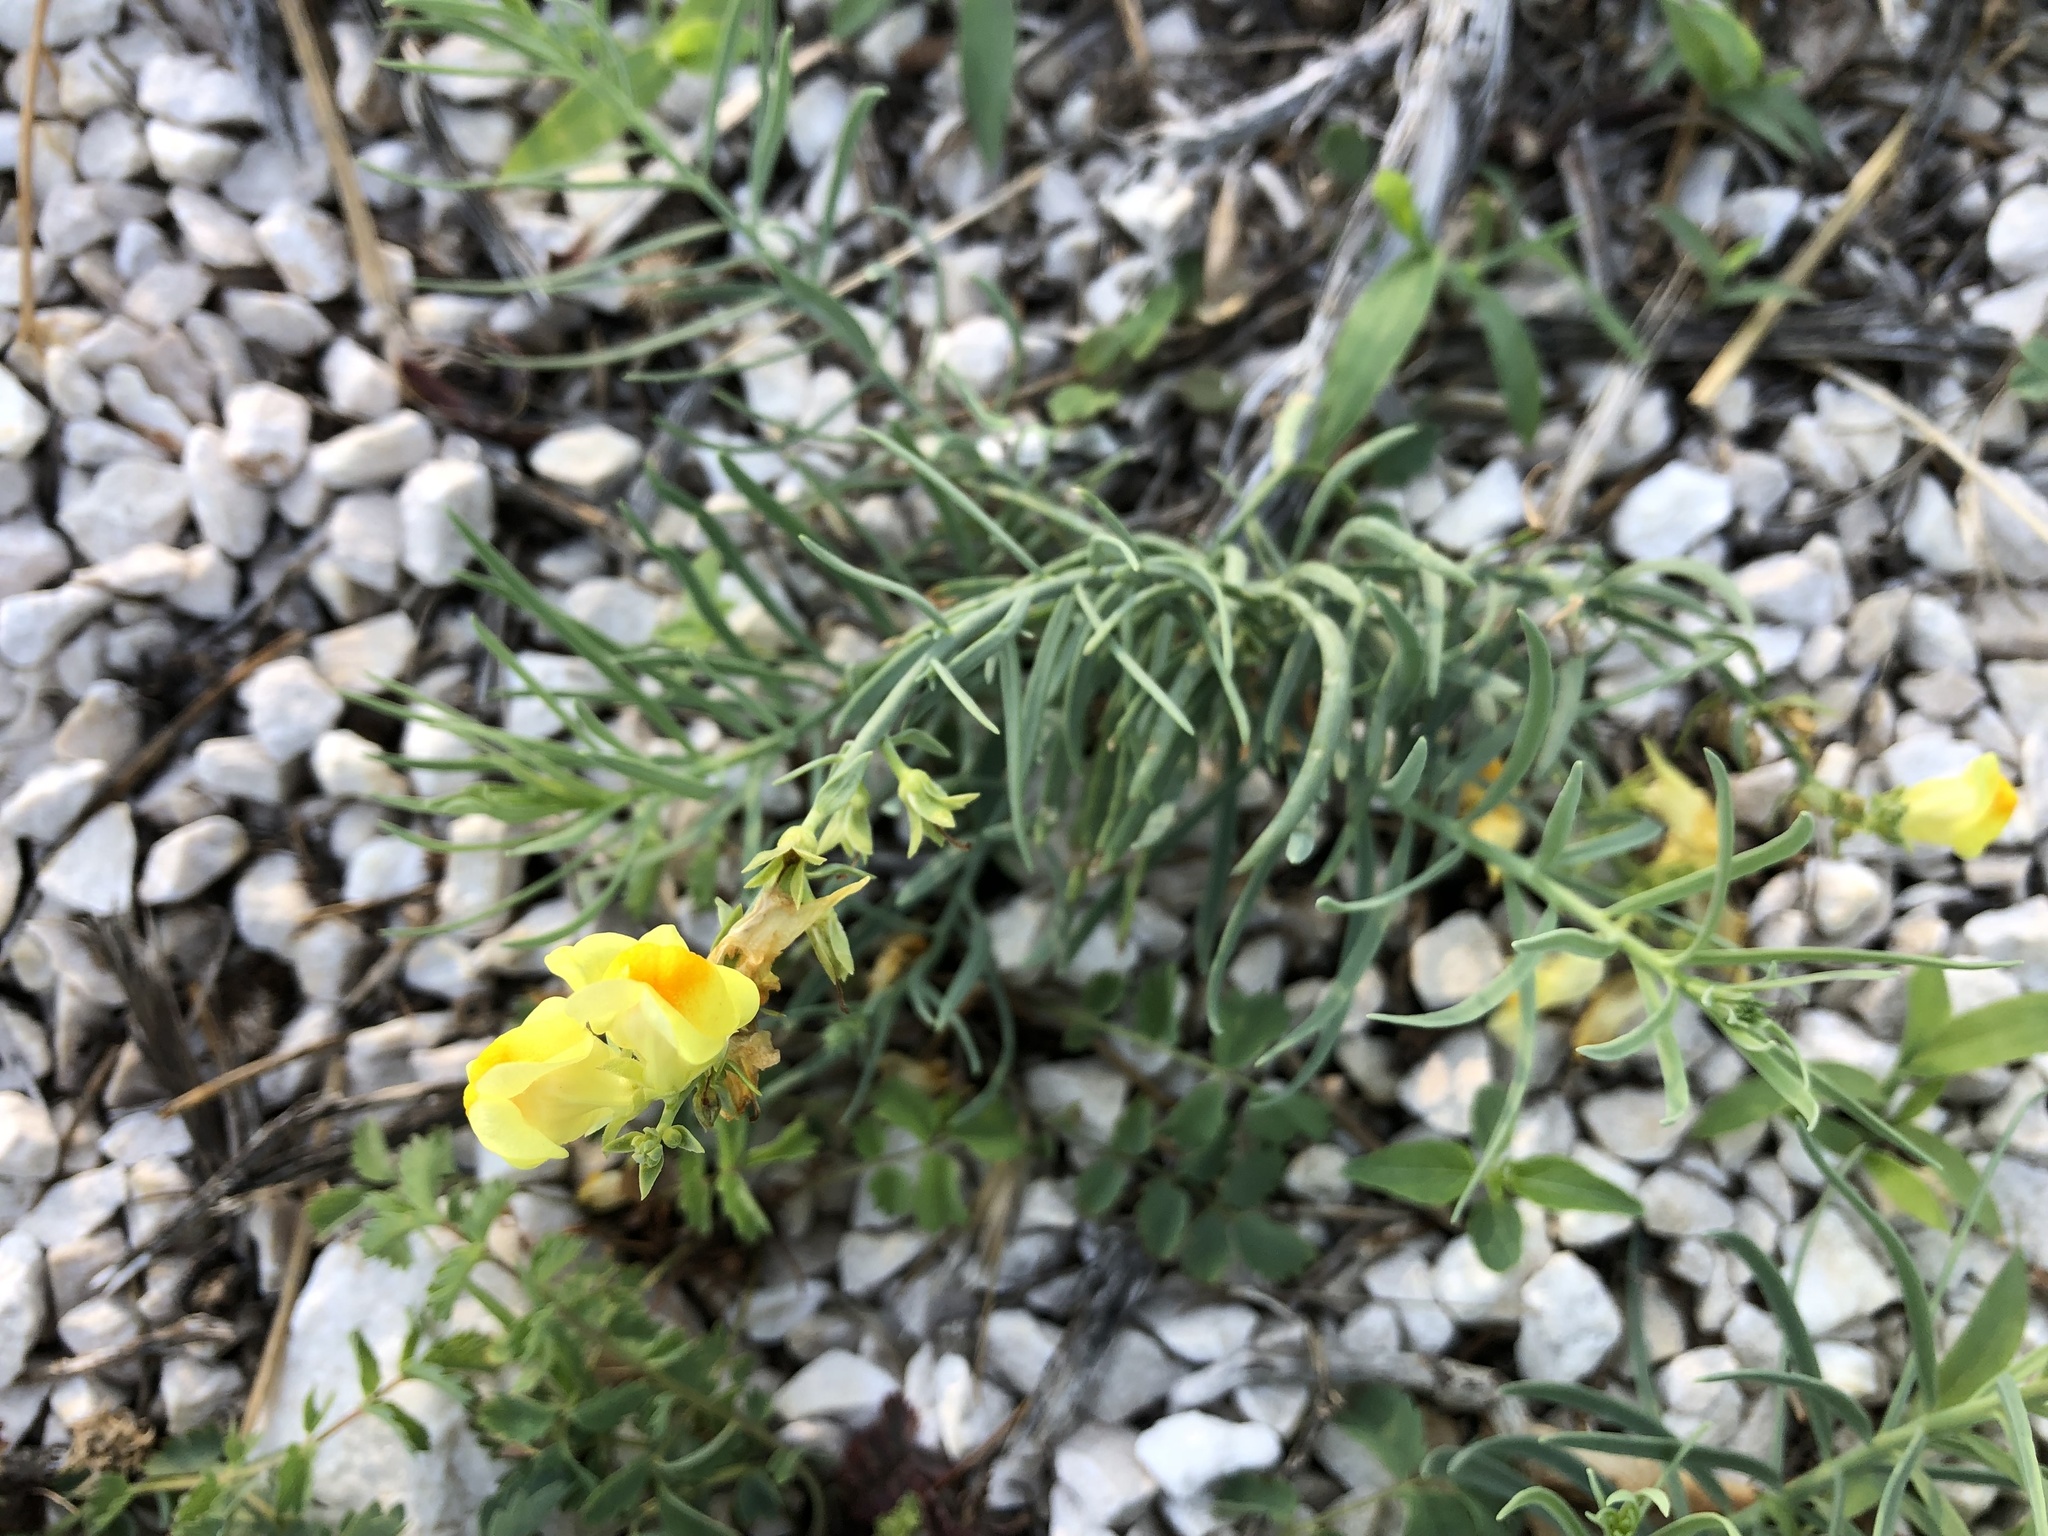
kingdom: Plantae
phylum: Tracheophyta
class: Magnoliopsida
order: Lamiales
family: Plantaginaceae
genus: Linaria
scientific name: Linaria vulgaris
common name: Butter and eggs
